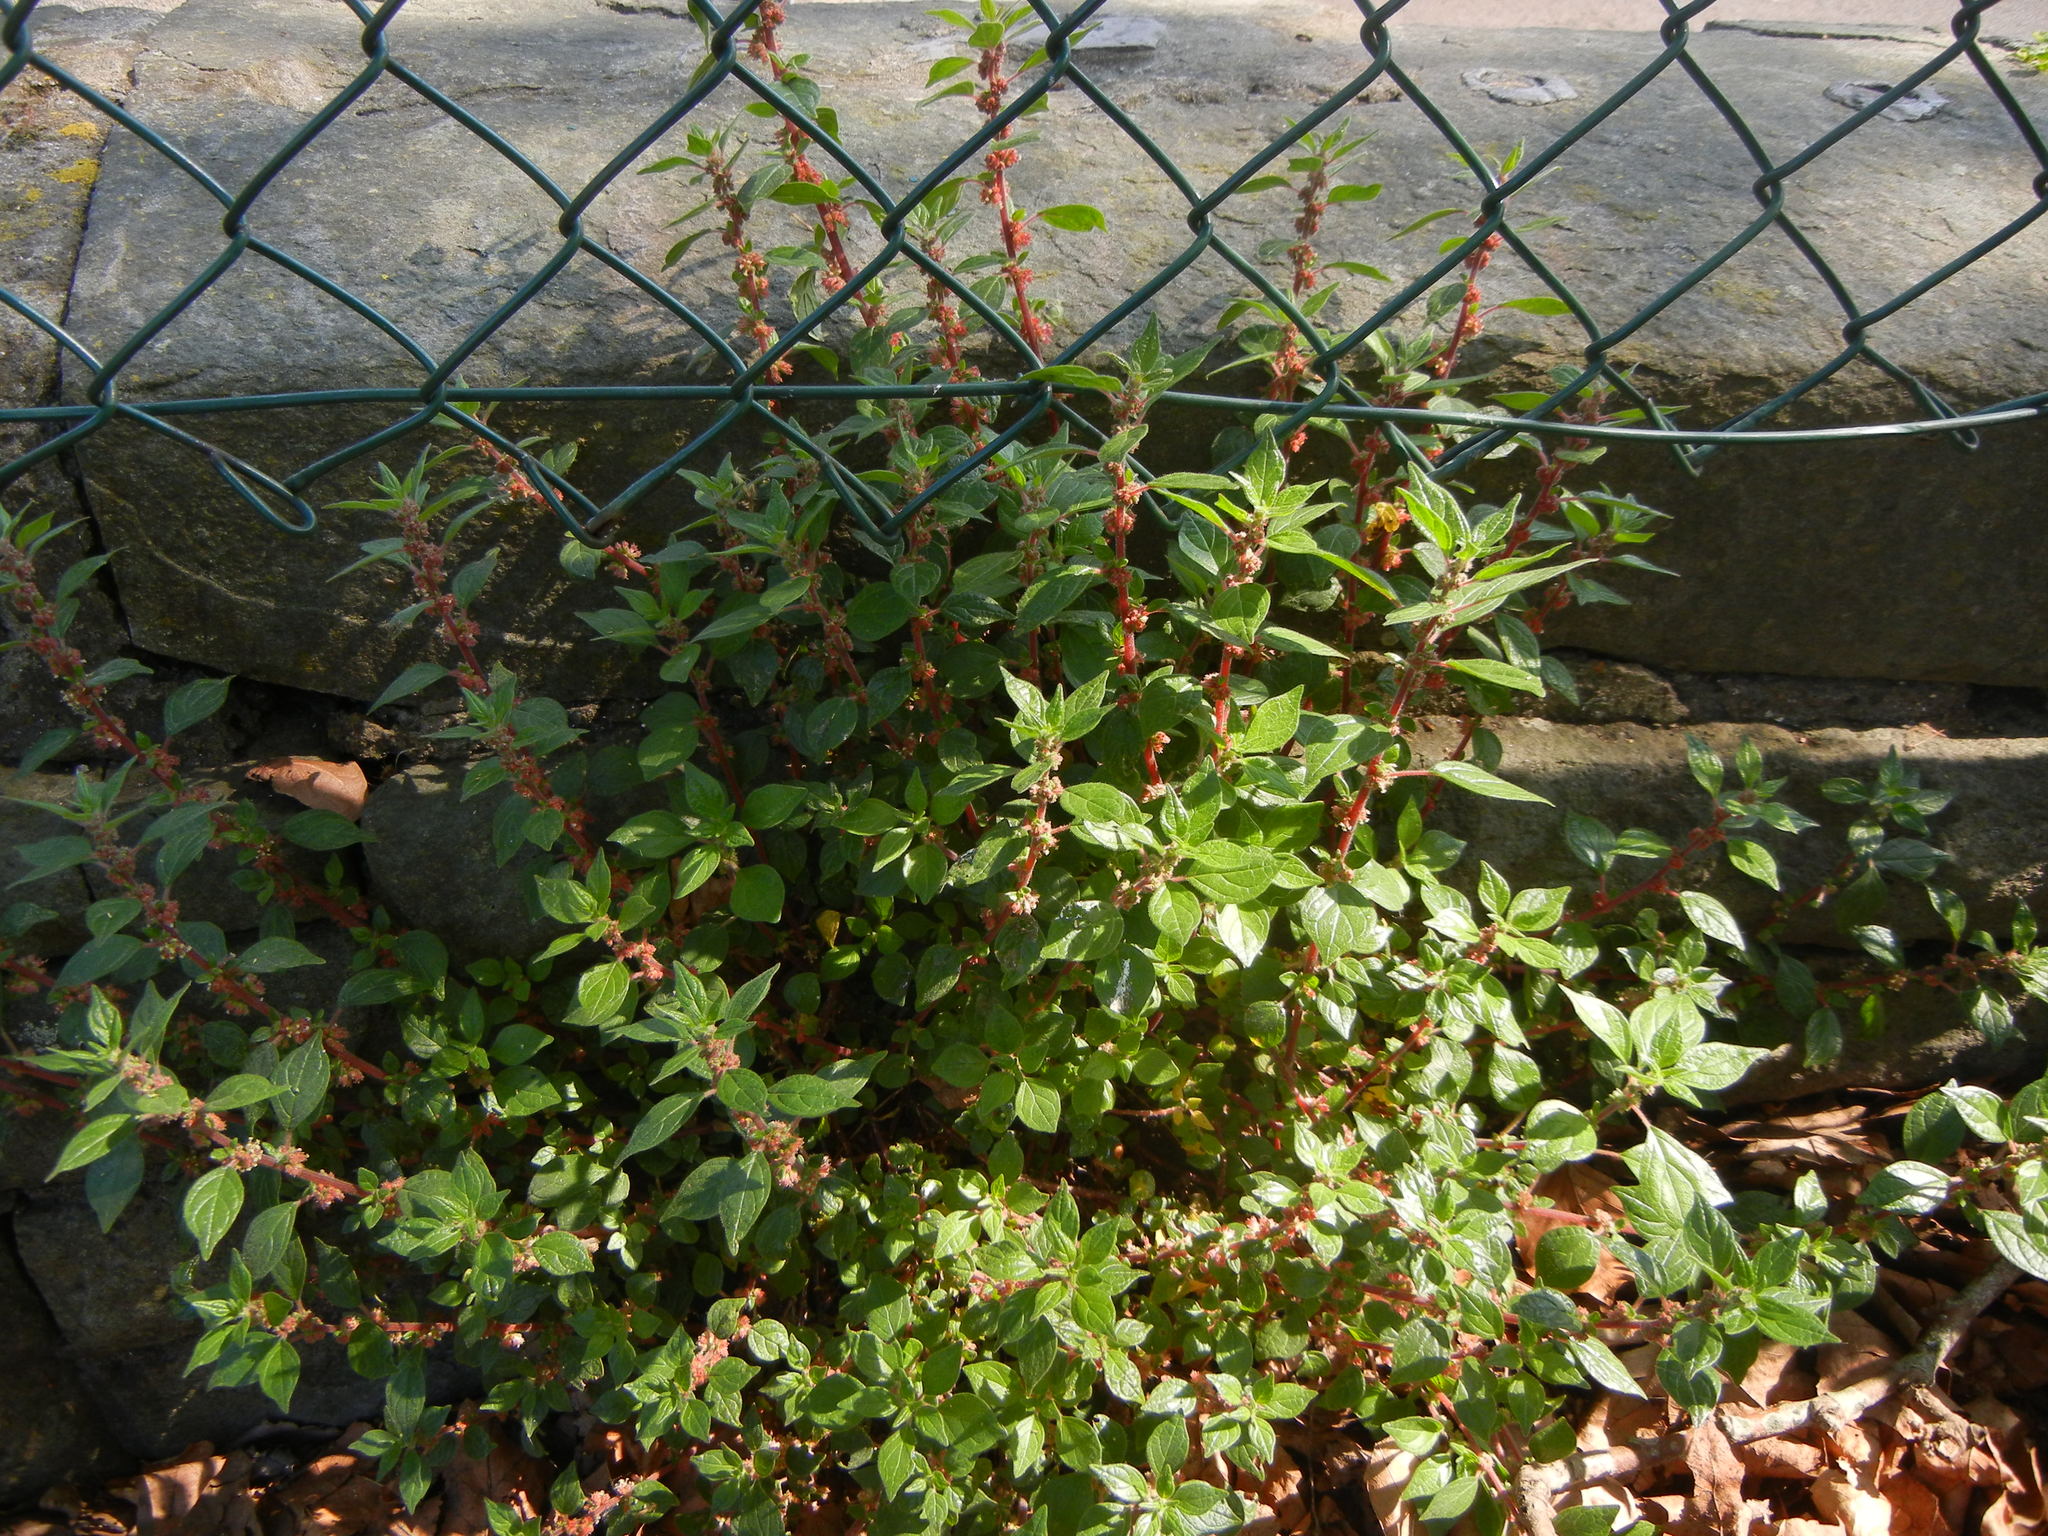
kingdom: Plantae
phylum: Tracheophyta
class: Magnoliopsida
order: Rosales
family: Urticaceae
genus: Parietaria
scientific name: Parietaria judaica
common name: Pellitory-of-the-wall
